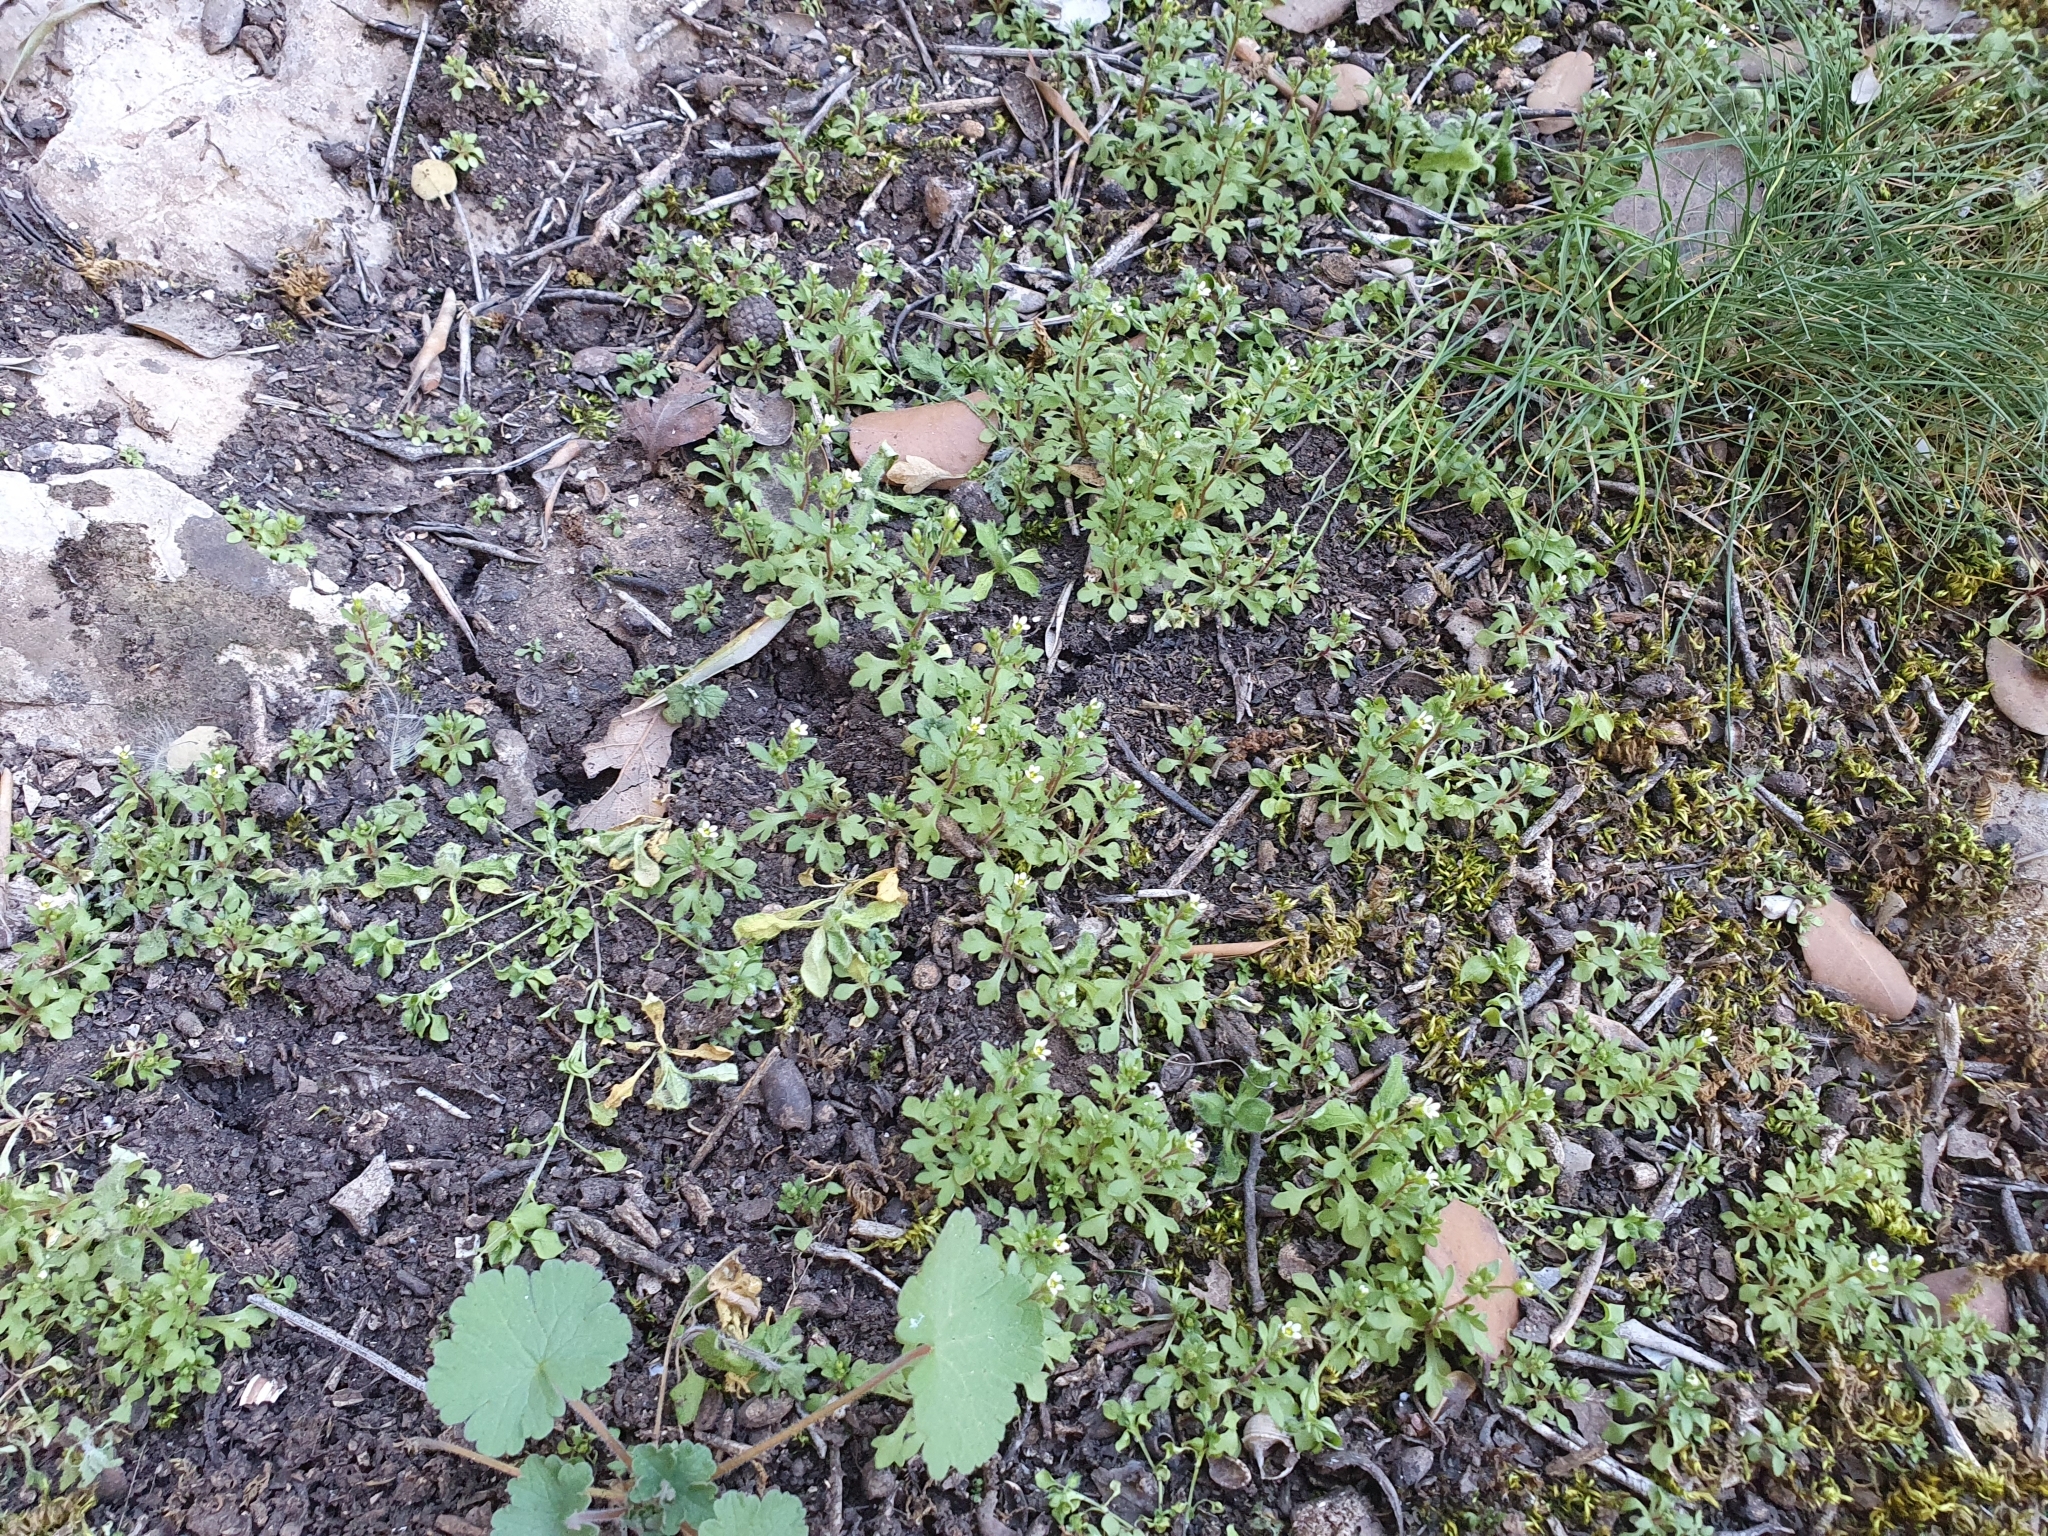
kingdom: Plantae
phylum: Tracheophyta
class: Magnoliopsida
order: Saxifragales
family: Saxifragaceae
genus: Saxifraga
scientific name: Saxifraga tridactylites
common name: Rue-leaved saxifrage
